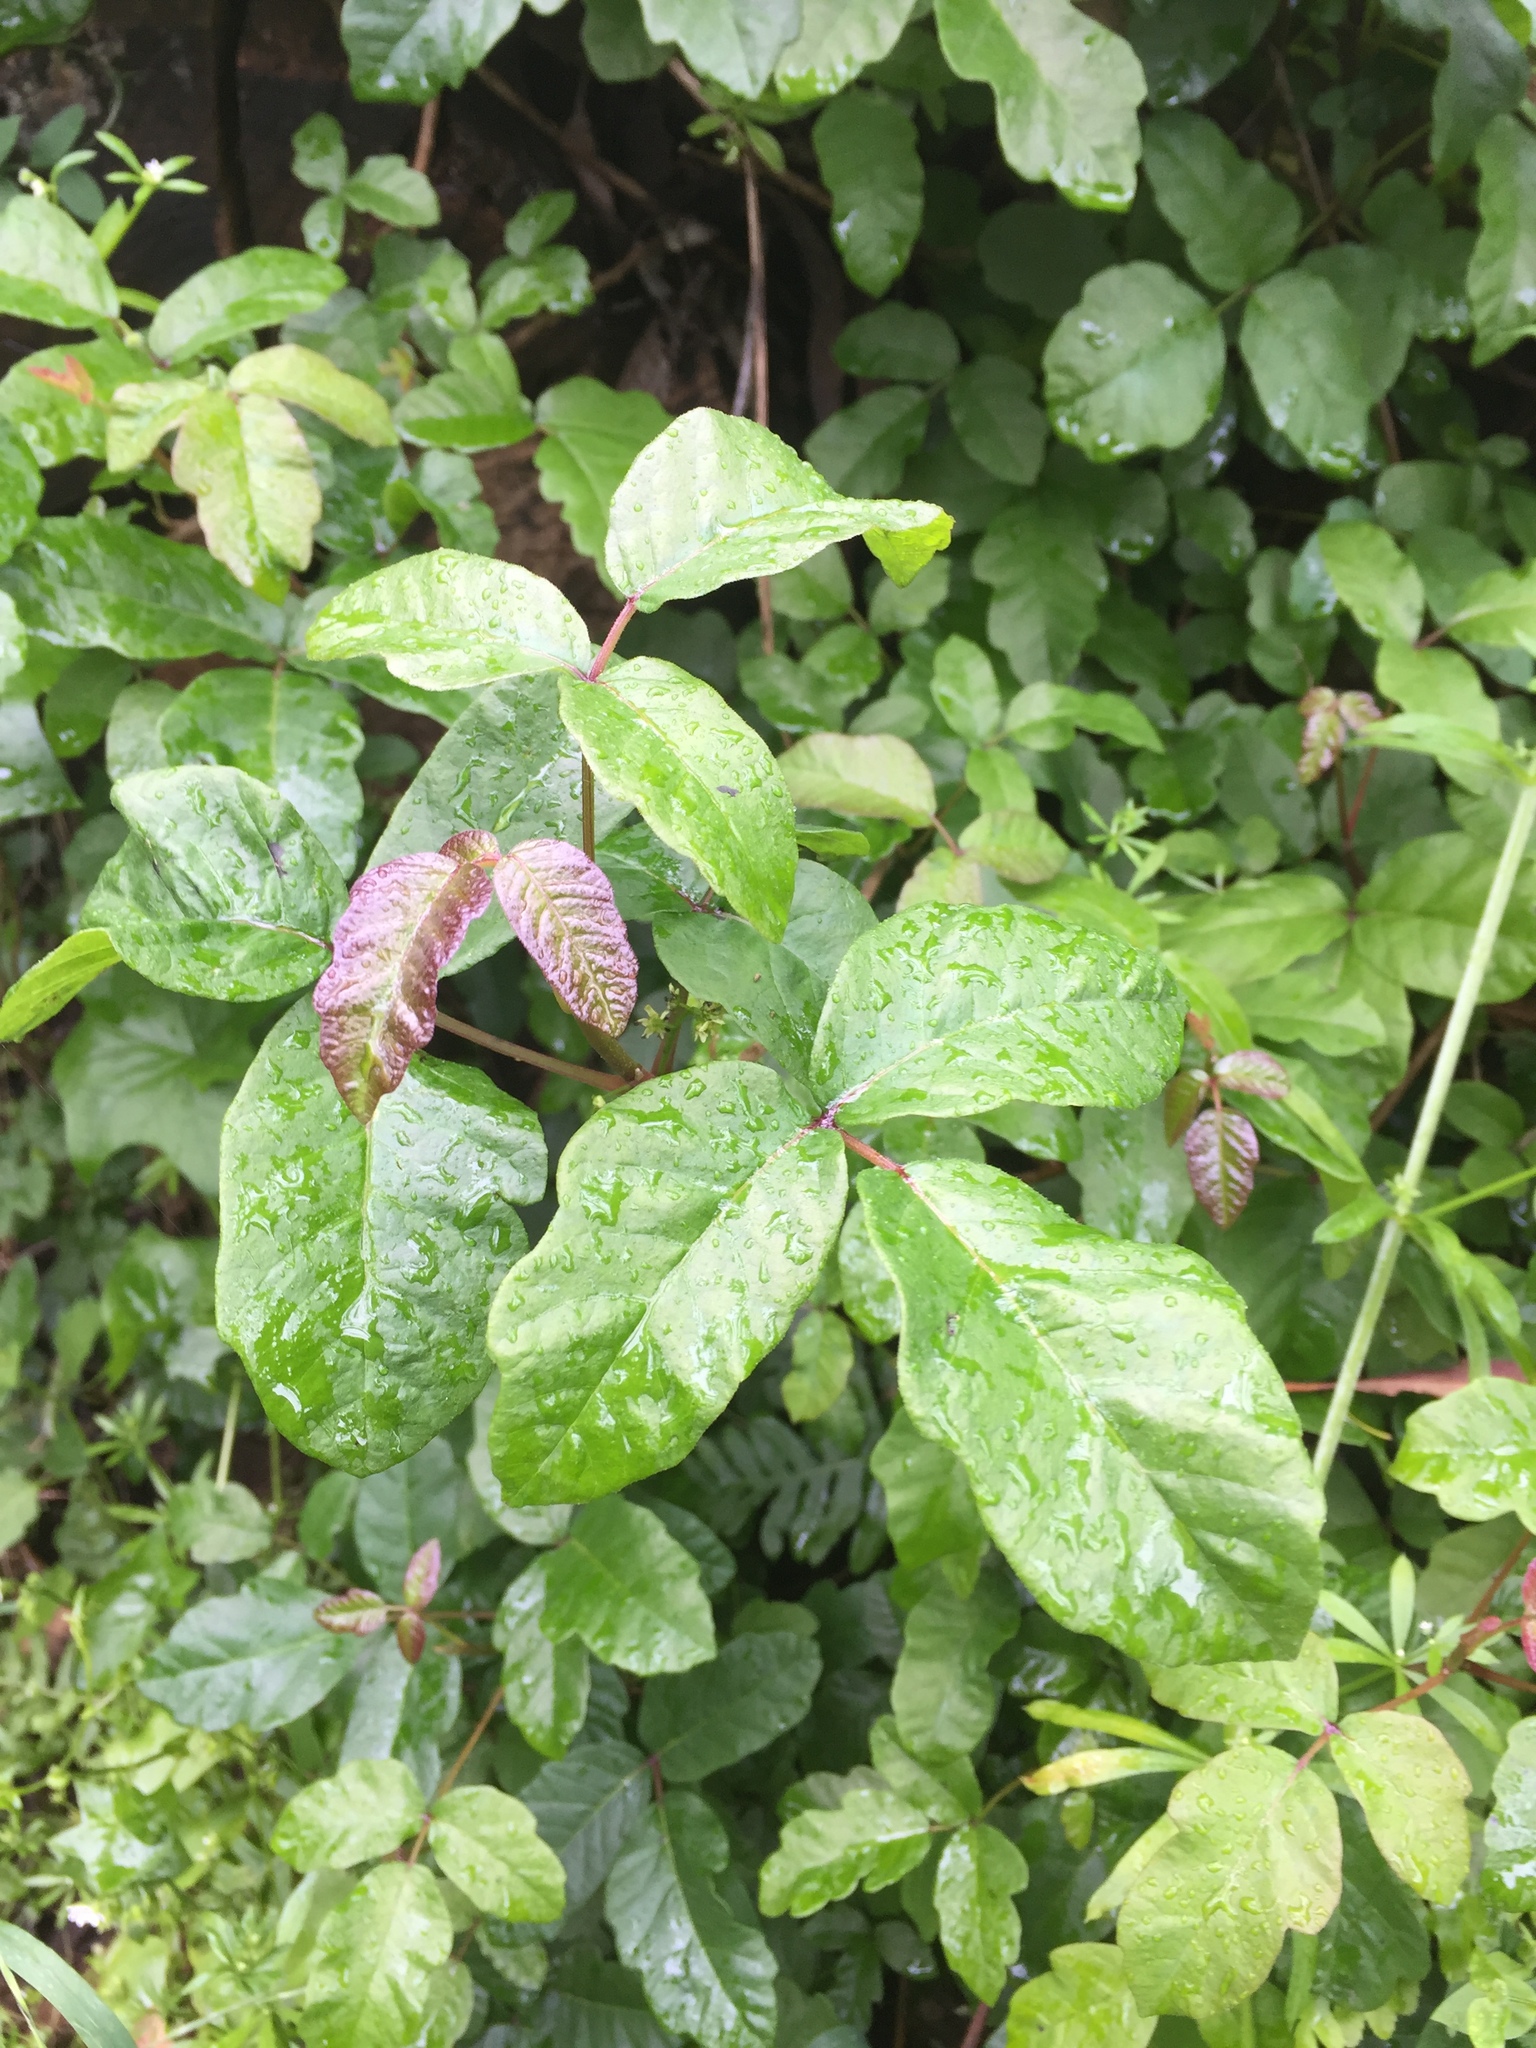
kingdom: Plantae
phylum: Tracheophyta
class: Magnoliopsida
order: Sapindales
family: Anacardiaceae
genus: Toxicodendron
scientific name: Toxicodendron diversilobum
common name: Pacific poison-oak
